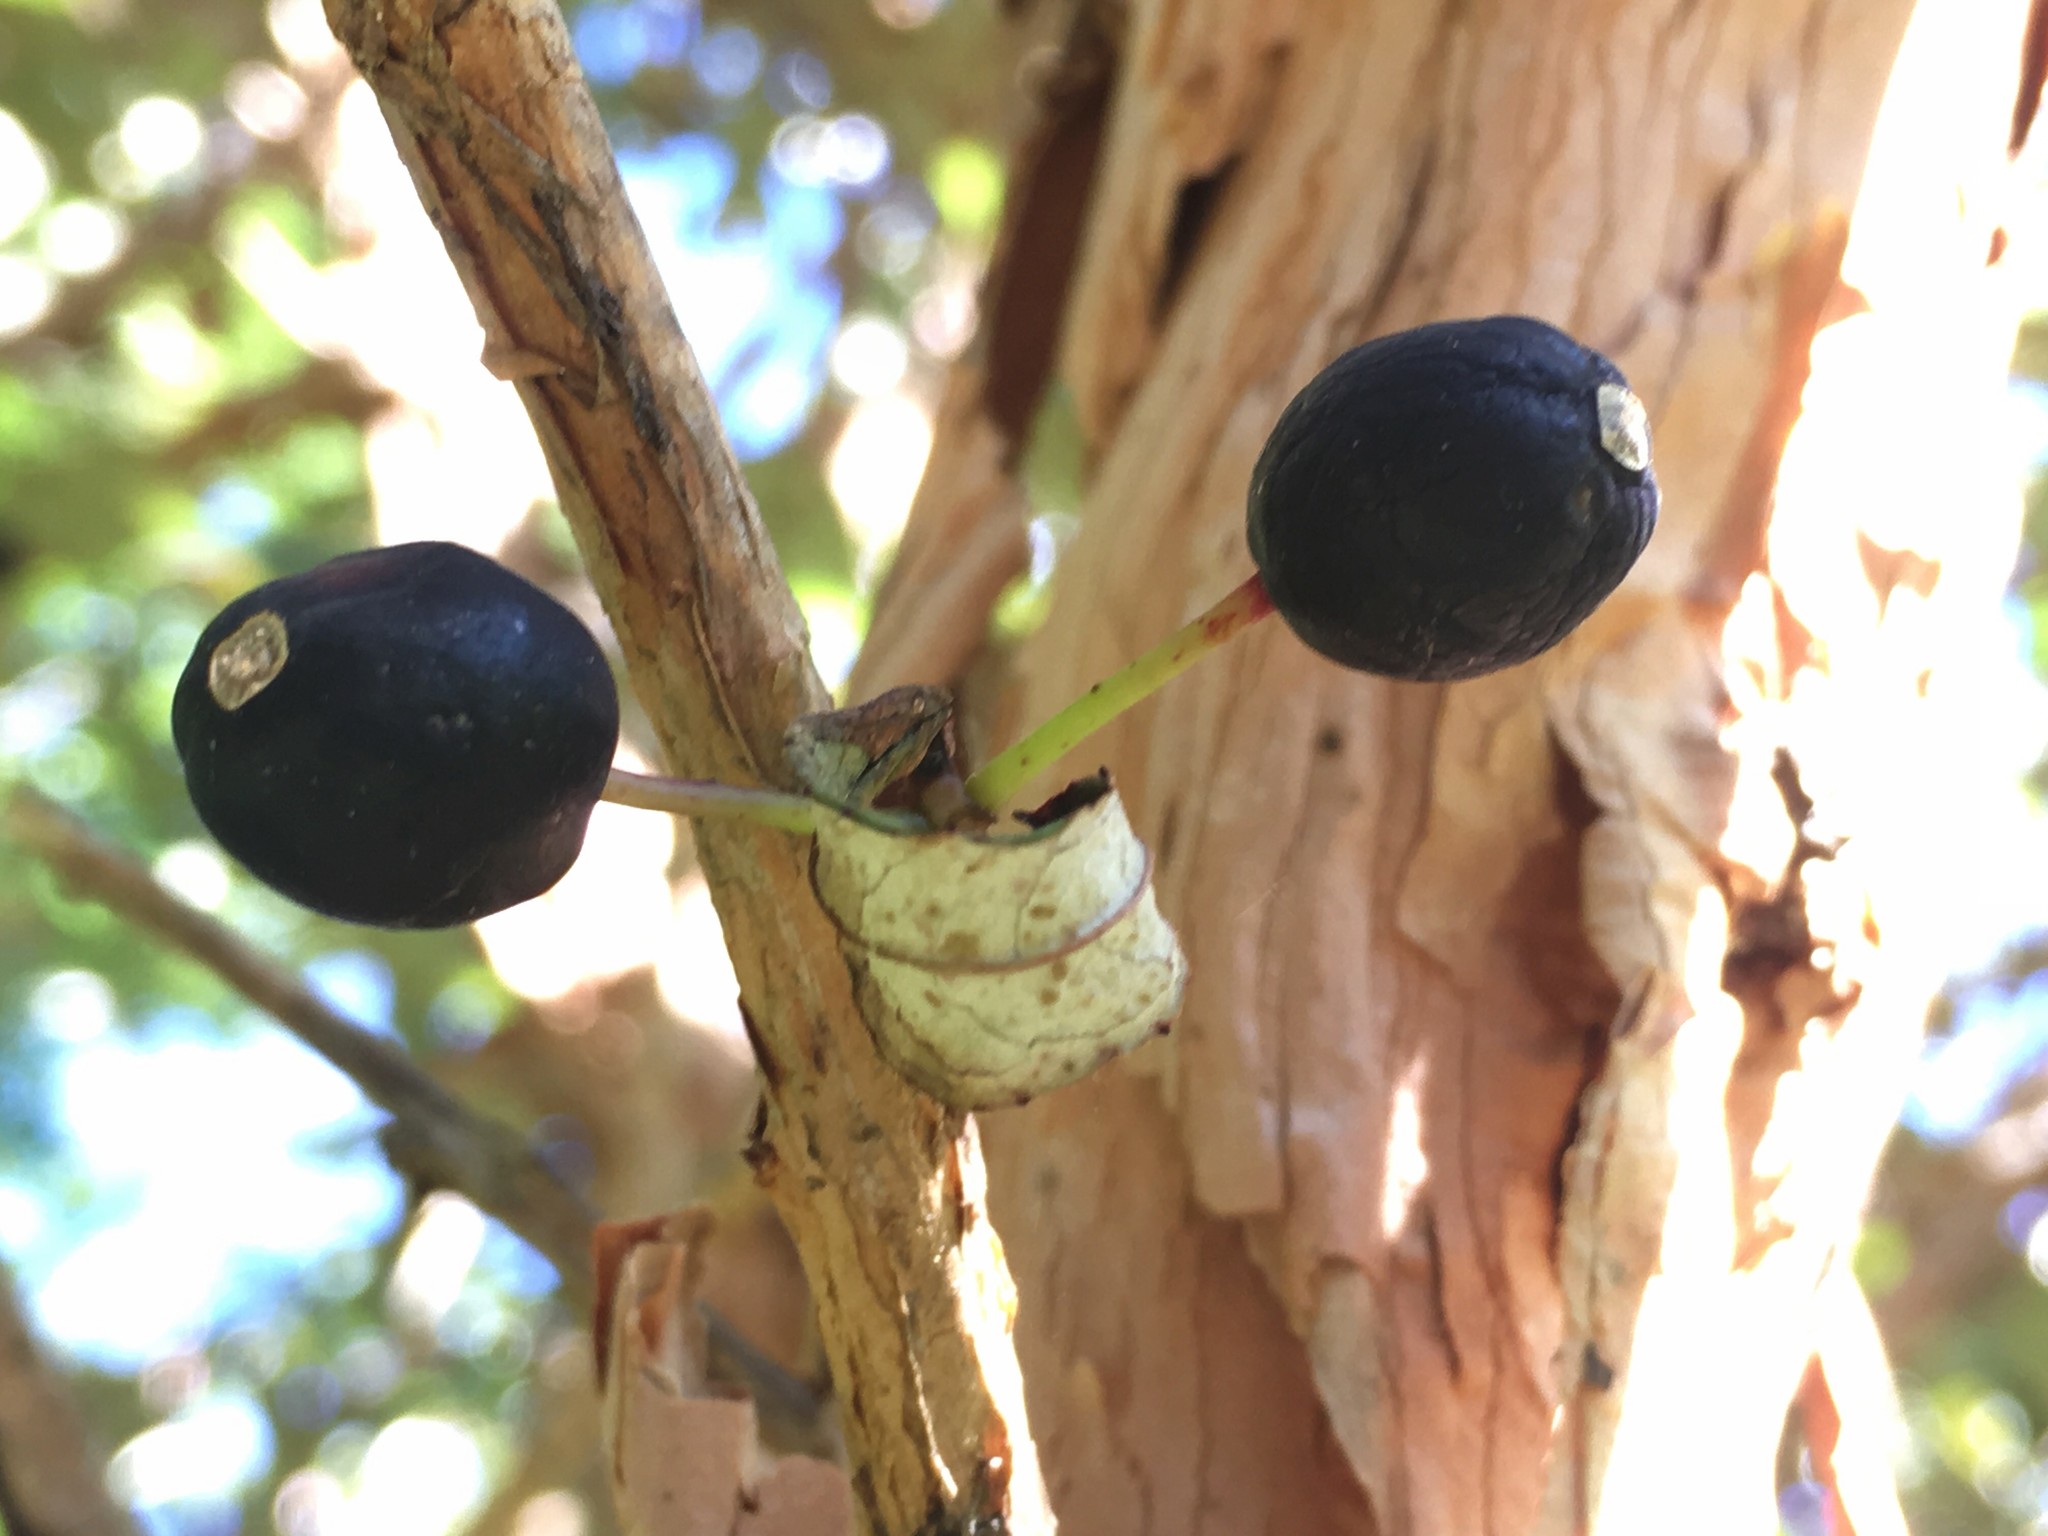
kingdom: Plantae
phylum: Tracheophyta
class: Magnoliopsida
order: Myrtales
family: Onagraceae
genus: Fuchsia
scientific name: Fuchsia excorticata
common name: Tree fuchsia
